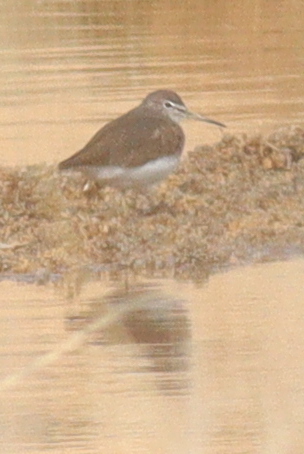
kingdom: Animalia
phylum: Chordata
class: Aves
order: Charadriiformes
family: Scolopacidae
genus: Tringa
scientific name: Tringa ochropus
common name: Green sandpiper
